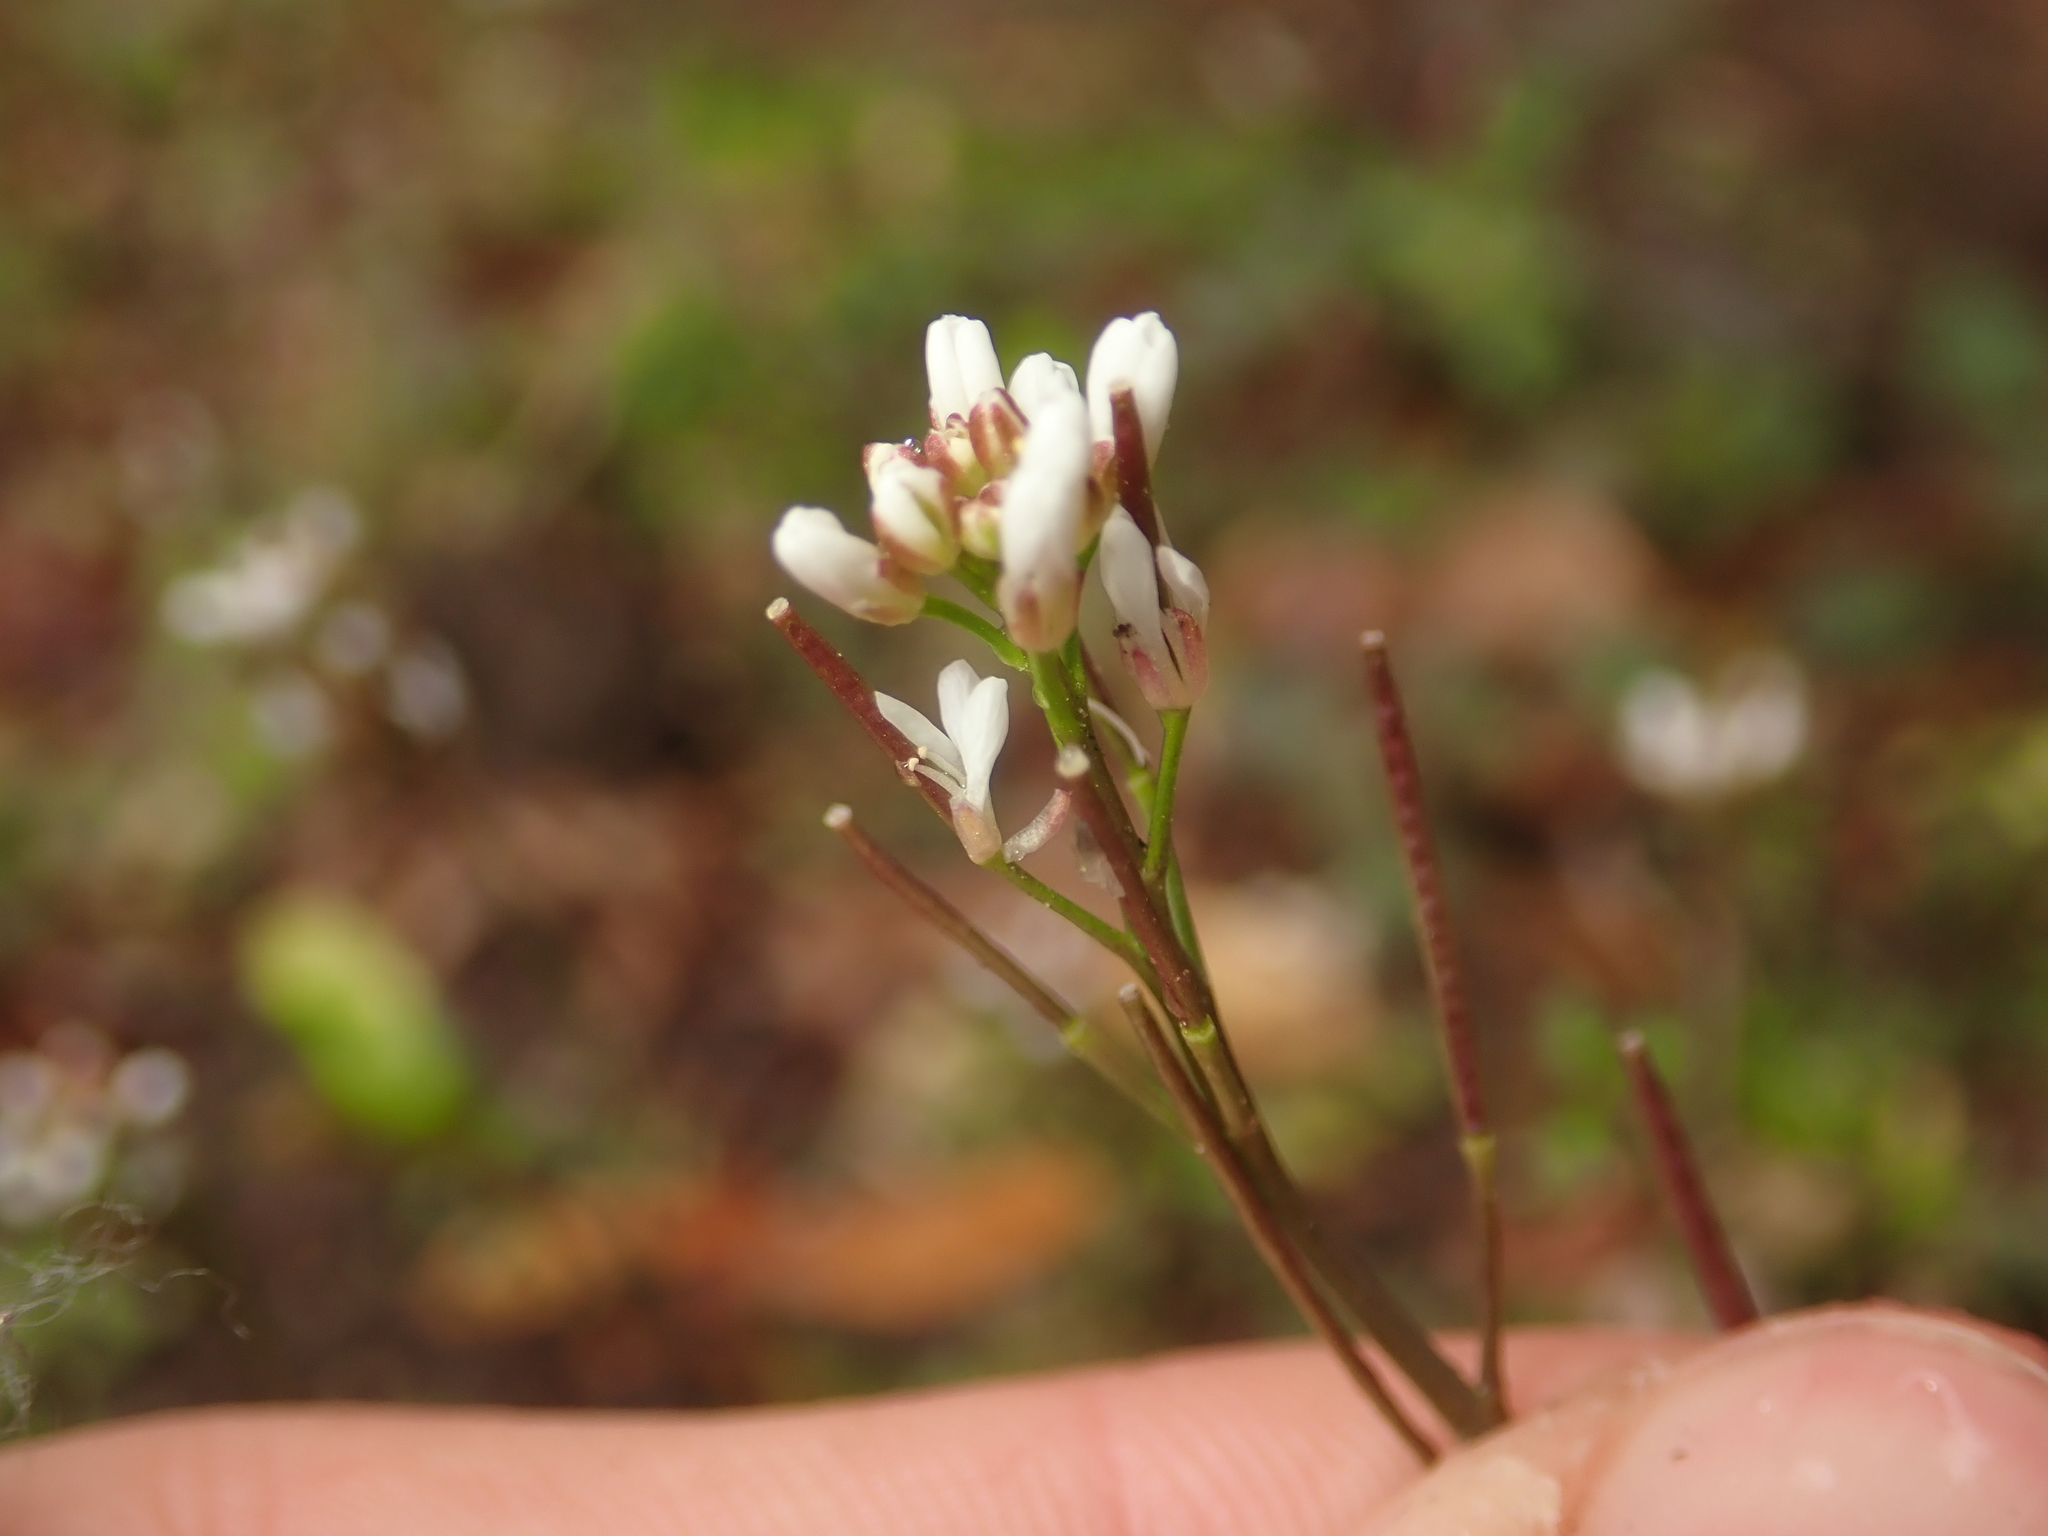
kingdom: Plantae
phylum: Tracheophyta
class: Magnoliopsida
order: Brassicales
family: Brassicaceae
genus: Cardamine
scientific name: Cardamine hirsuta
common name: Hairy bittercress
